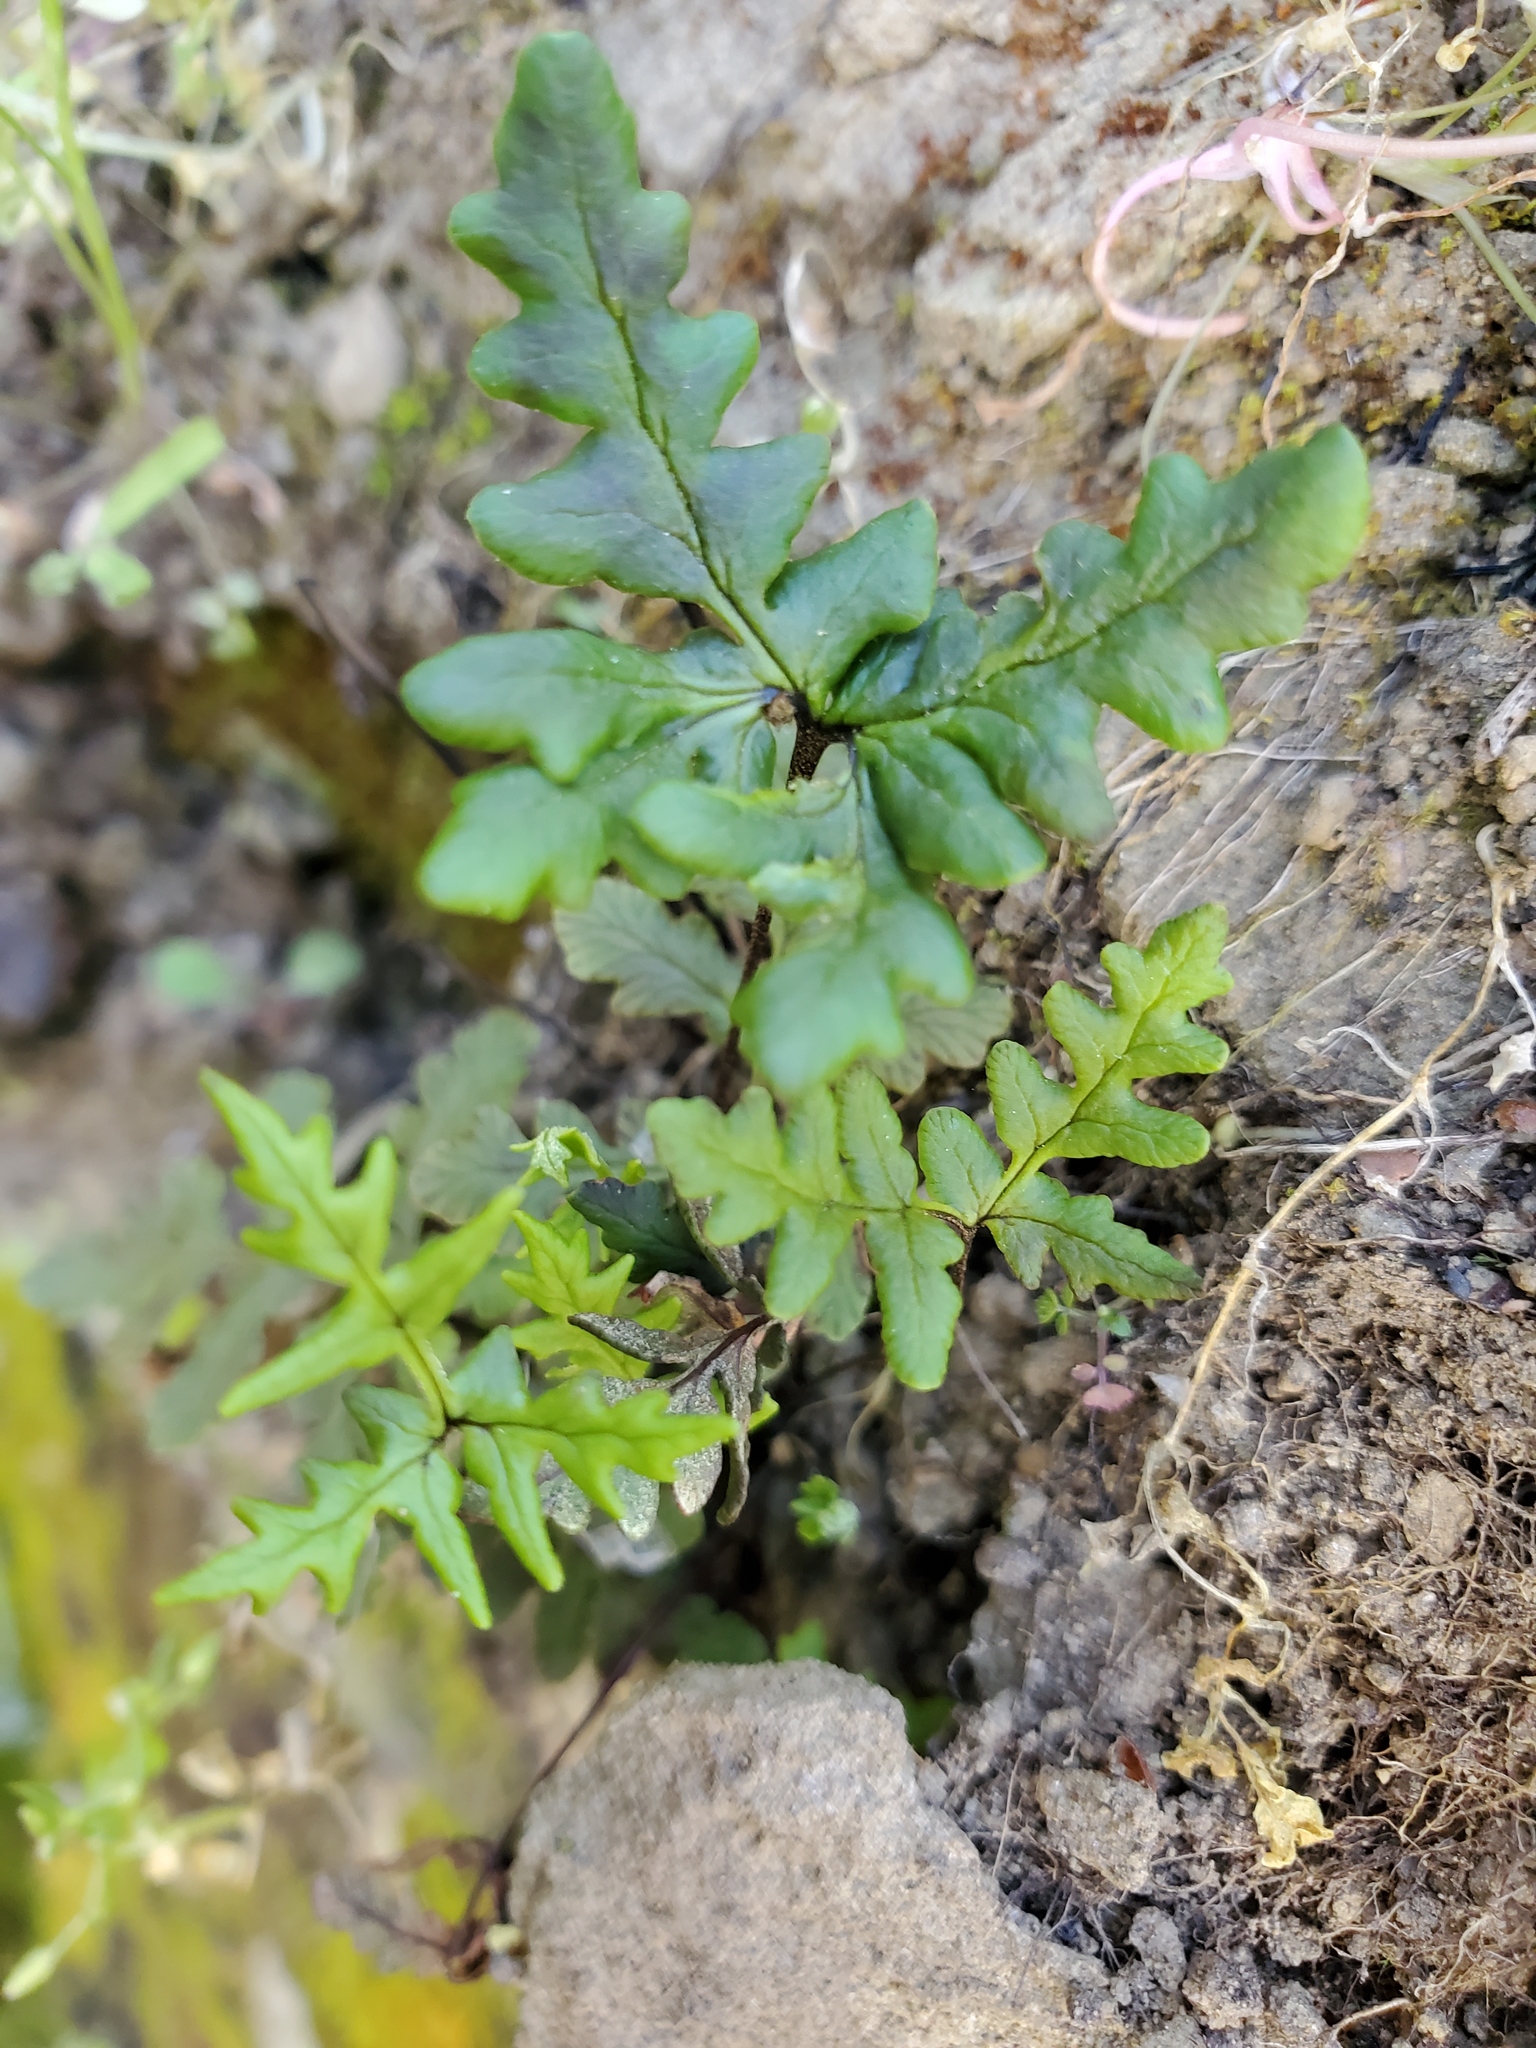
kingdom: Plantae
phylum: Tracheophyta
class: Polypodiopsida
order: Polypodiales
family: Pteridaceae
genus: Pentagramma
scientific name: Pentagramma triangularis
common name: Gold fern
